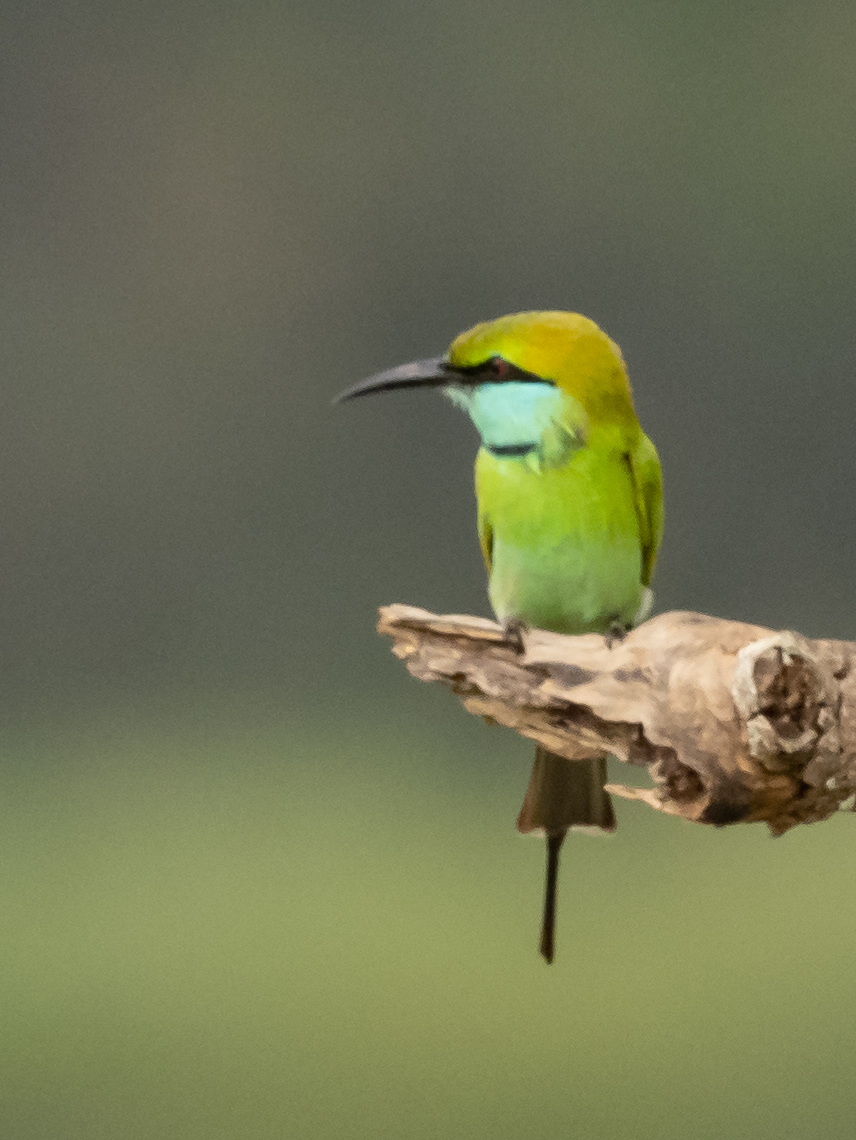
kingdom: Animalia
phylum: Chordata
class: Aves
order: Coraciiformes
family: Meropidae
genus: Merops
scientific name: Merops orientalis
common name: Green bee-eater
